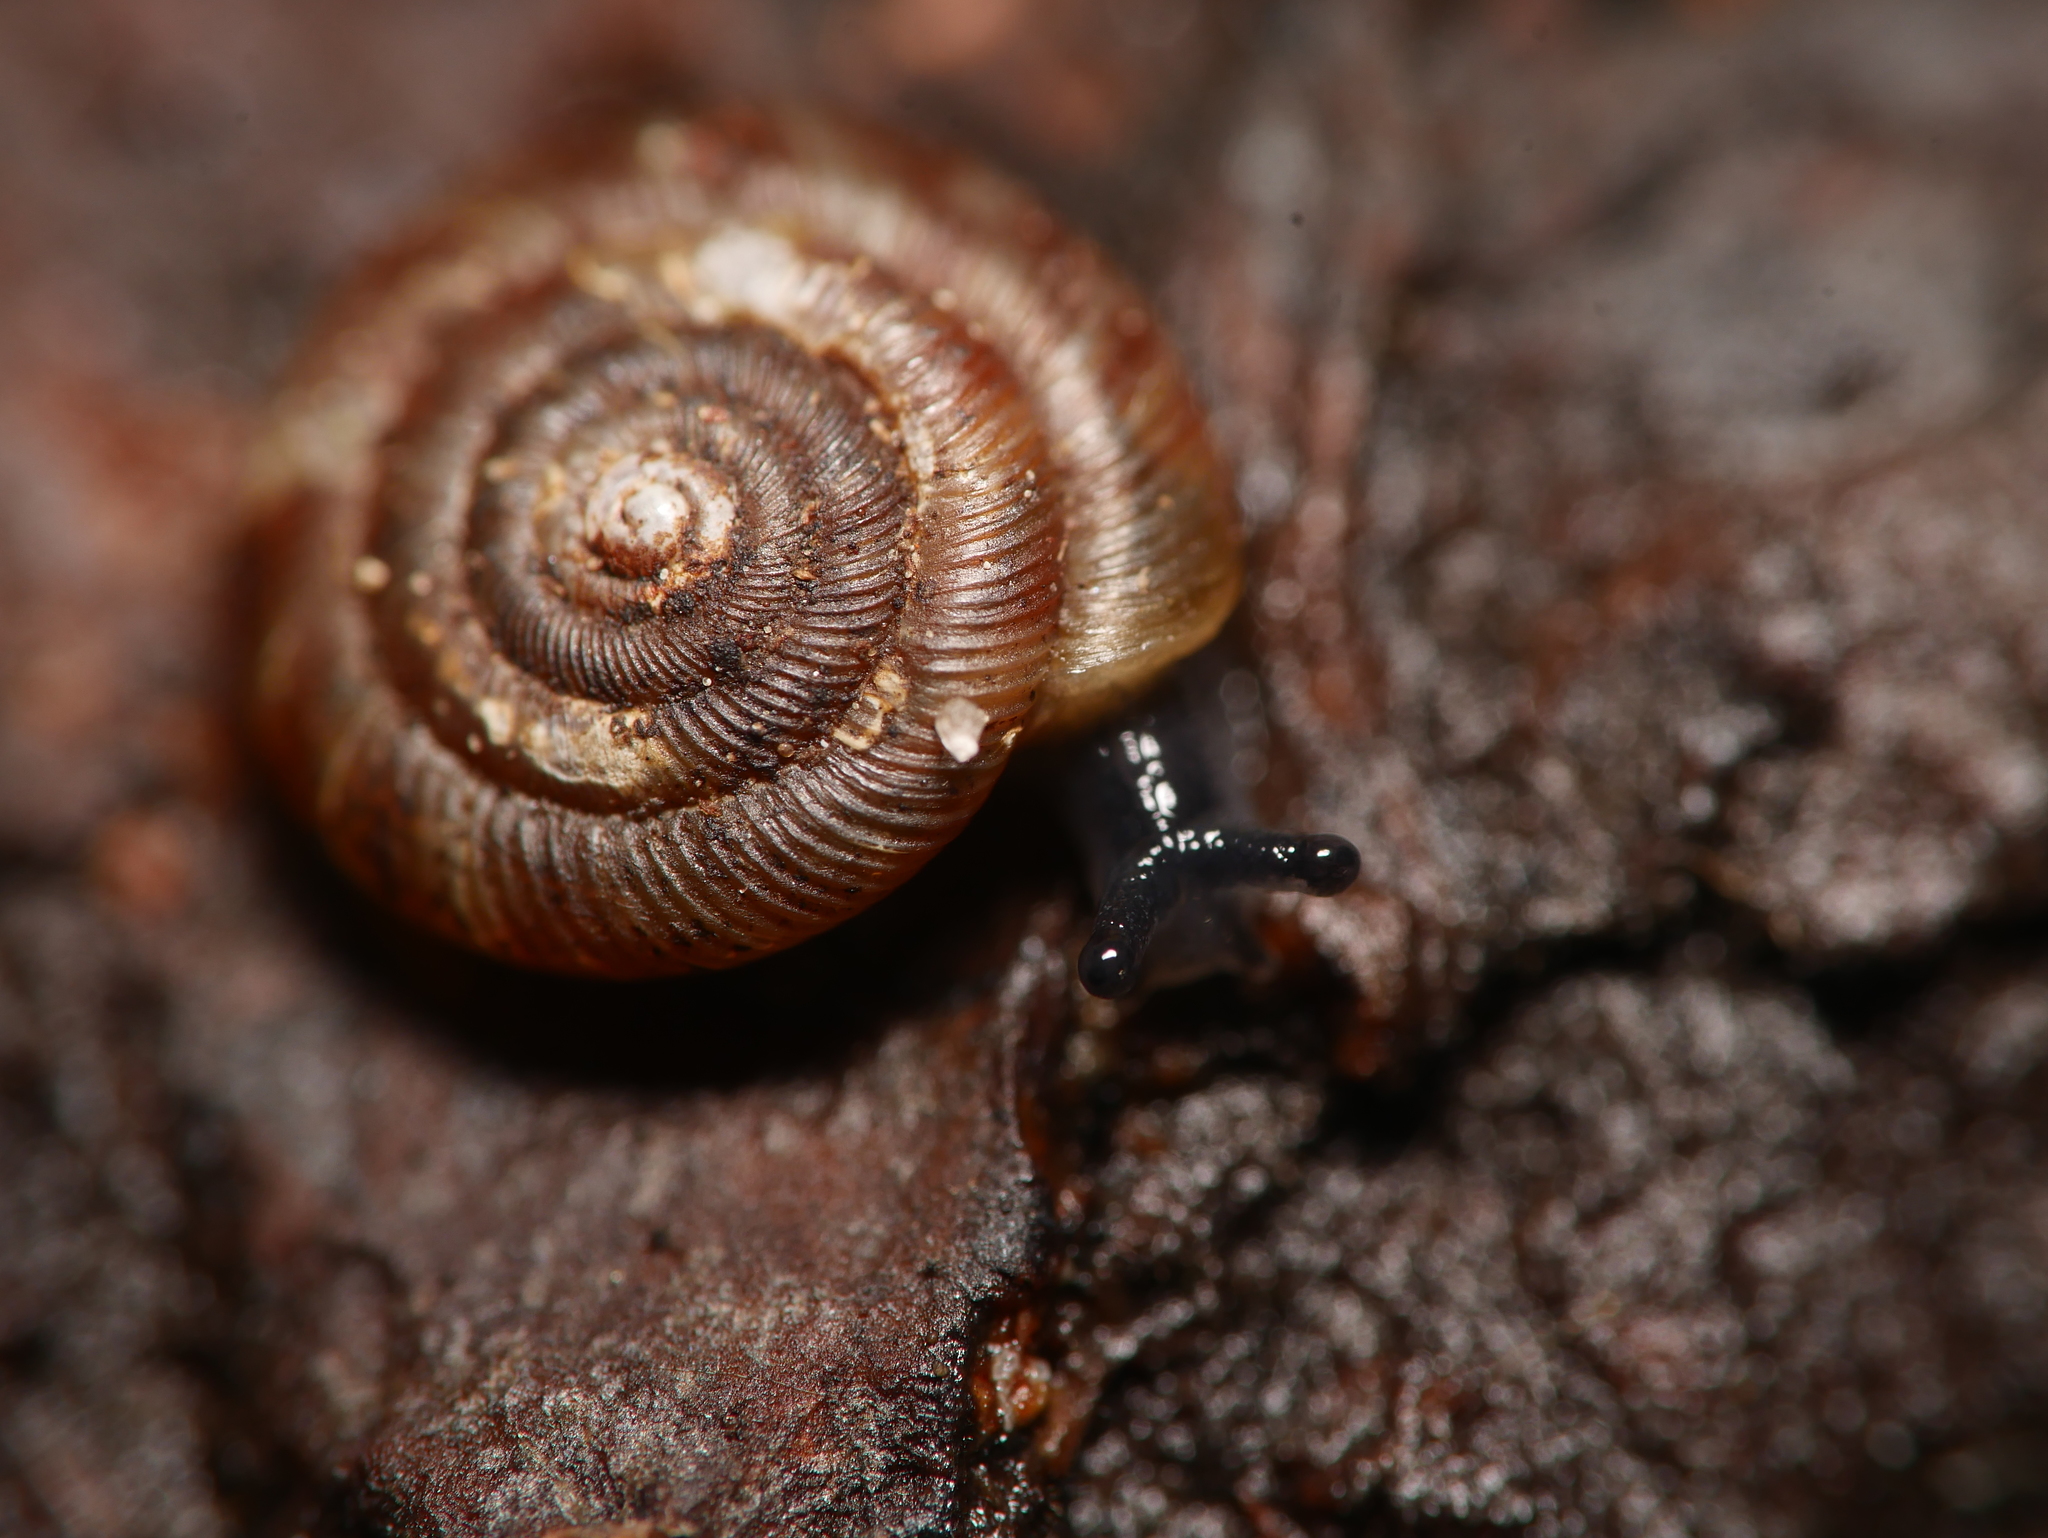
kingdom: Animalia
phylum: Mollusca
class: Gastropoda
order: Stylommatophora
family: Discidae
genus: Discus
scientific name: Discus rotundatus
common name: Rounded snail
